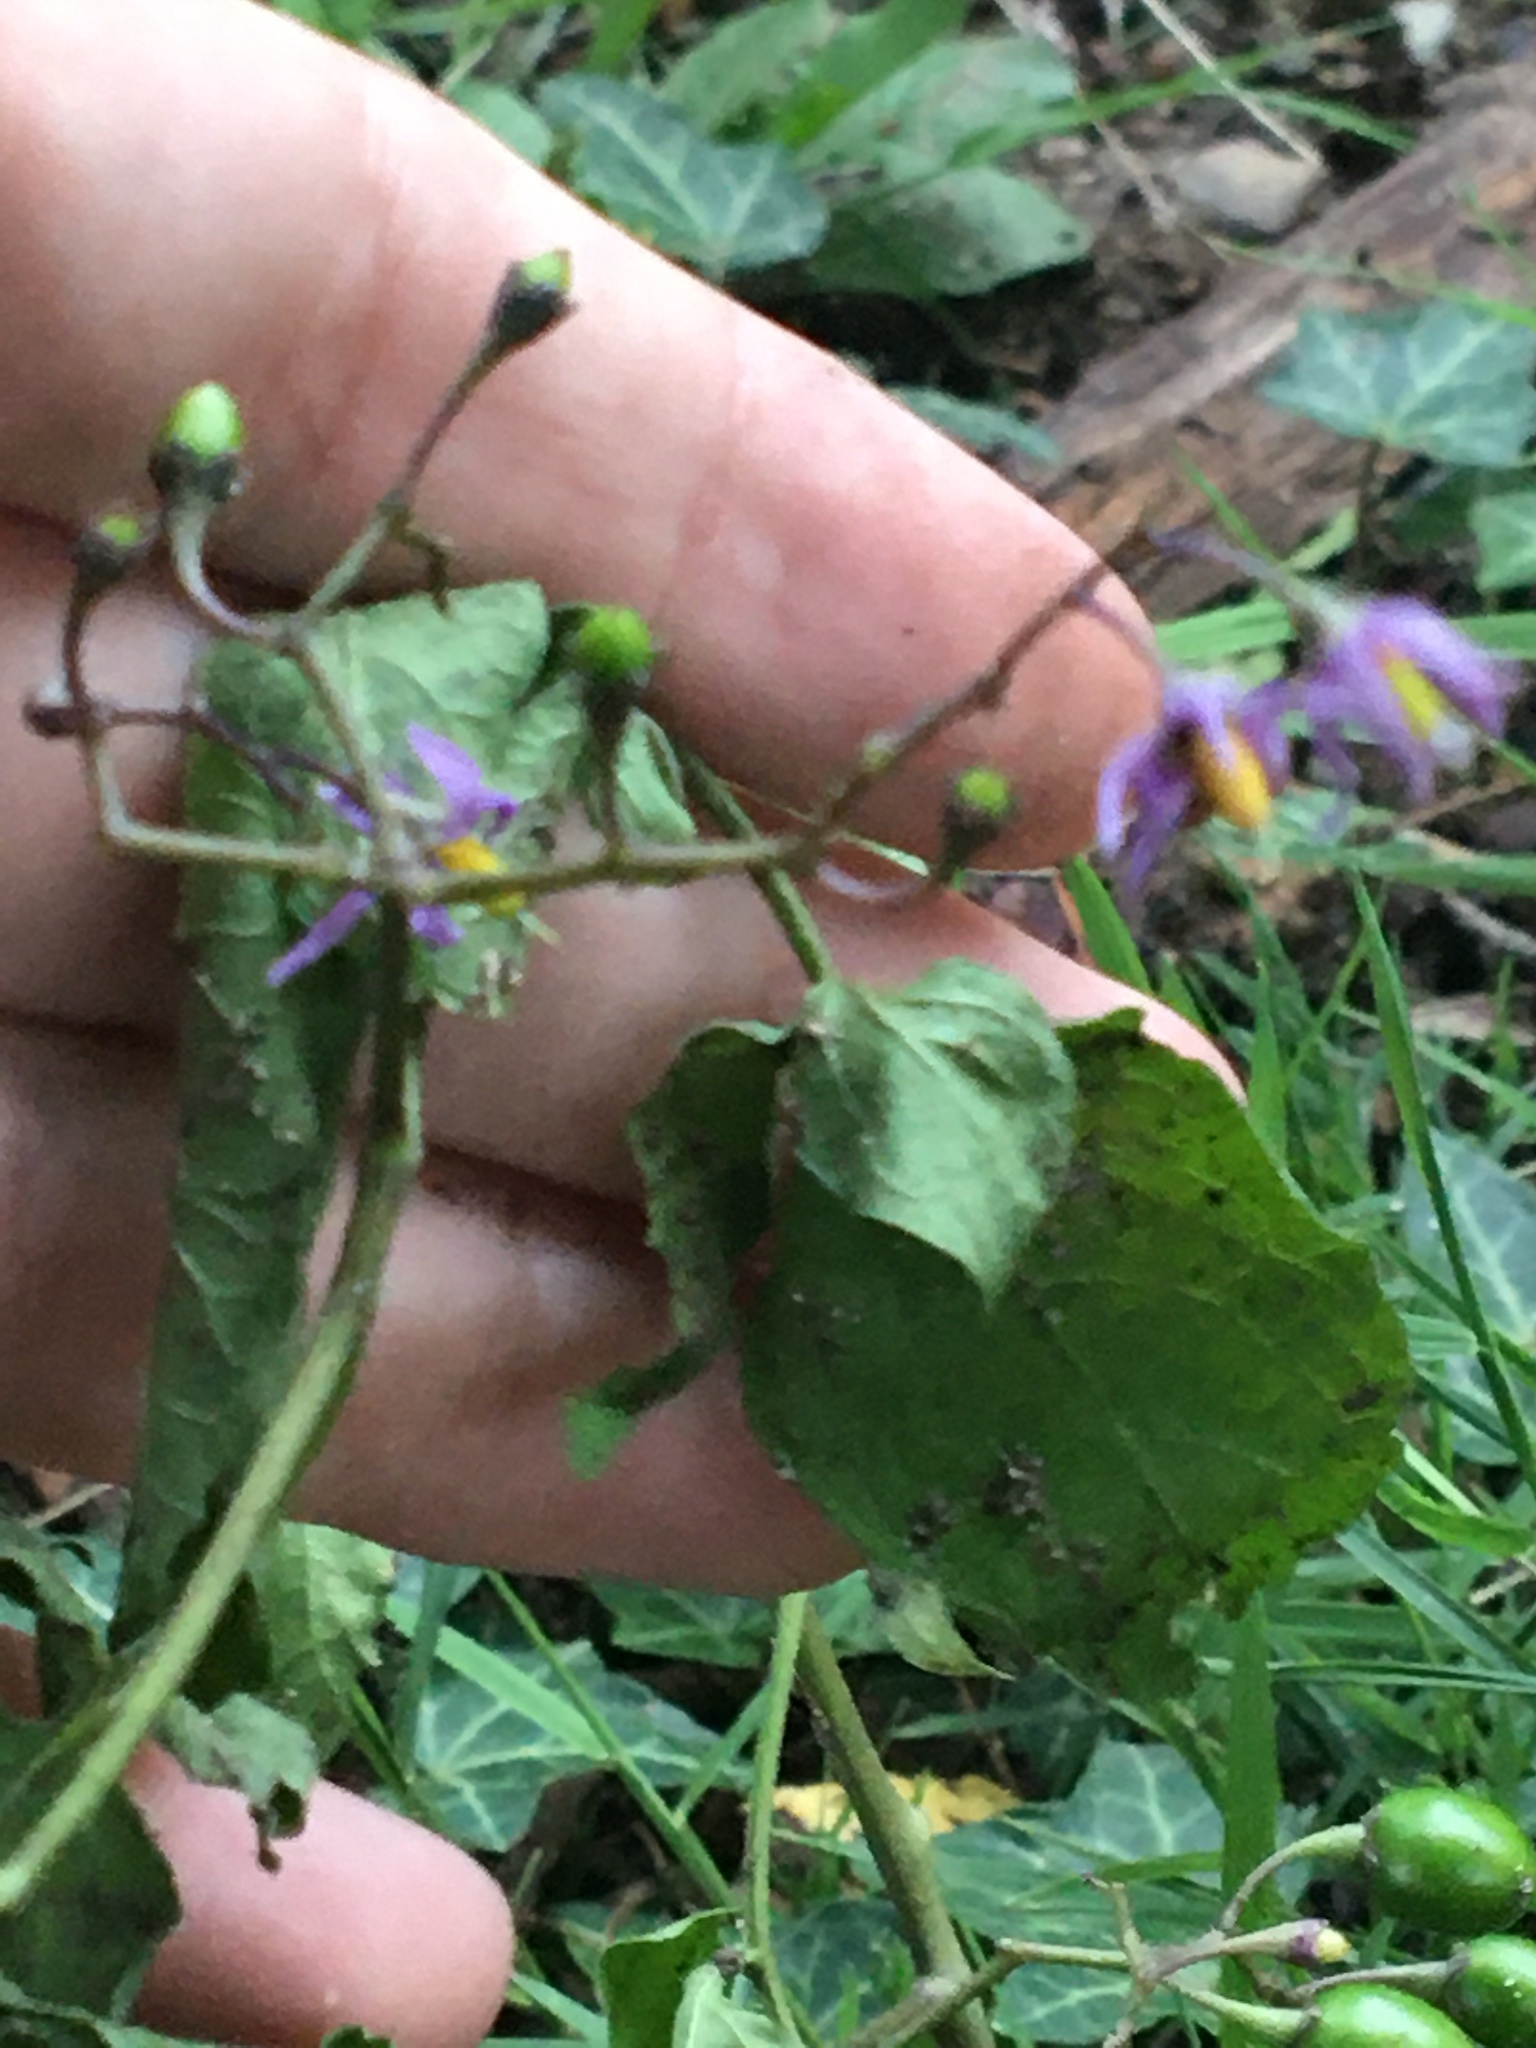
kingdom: Plantae
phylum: Tracheophyta
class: Magnoliopsida
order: Solanales
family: Solanaceae
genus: Solanum
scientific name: Solanum dulcamara
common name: Climbing nightshade
